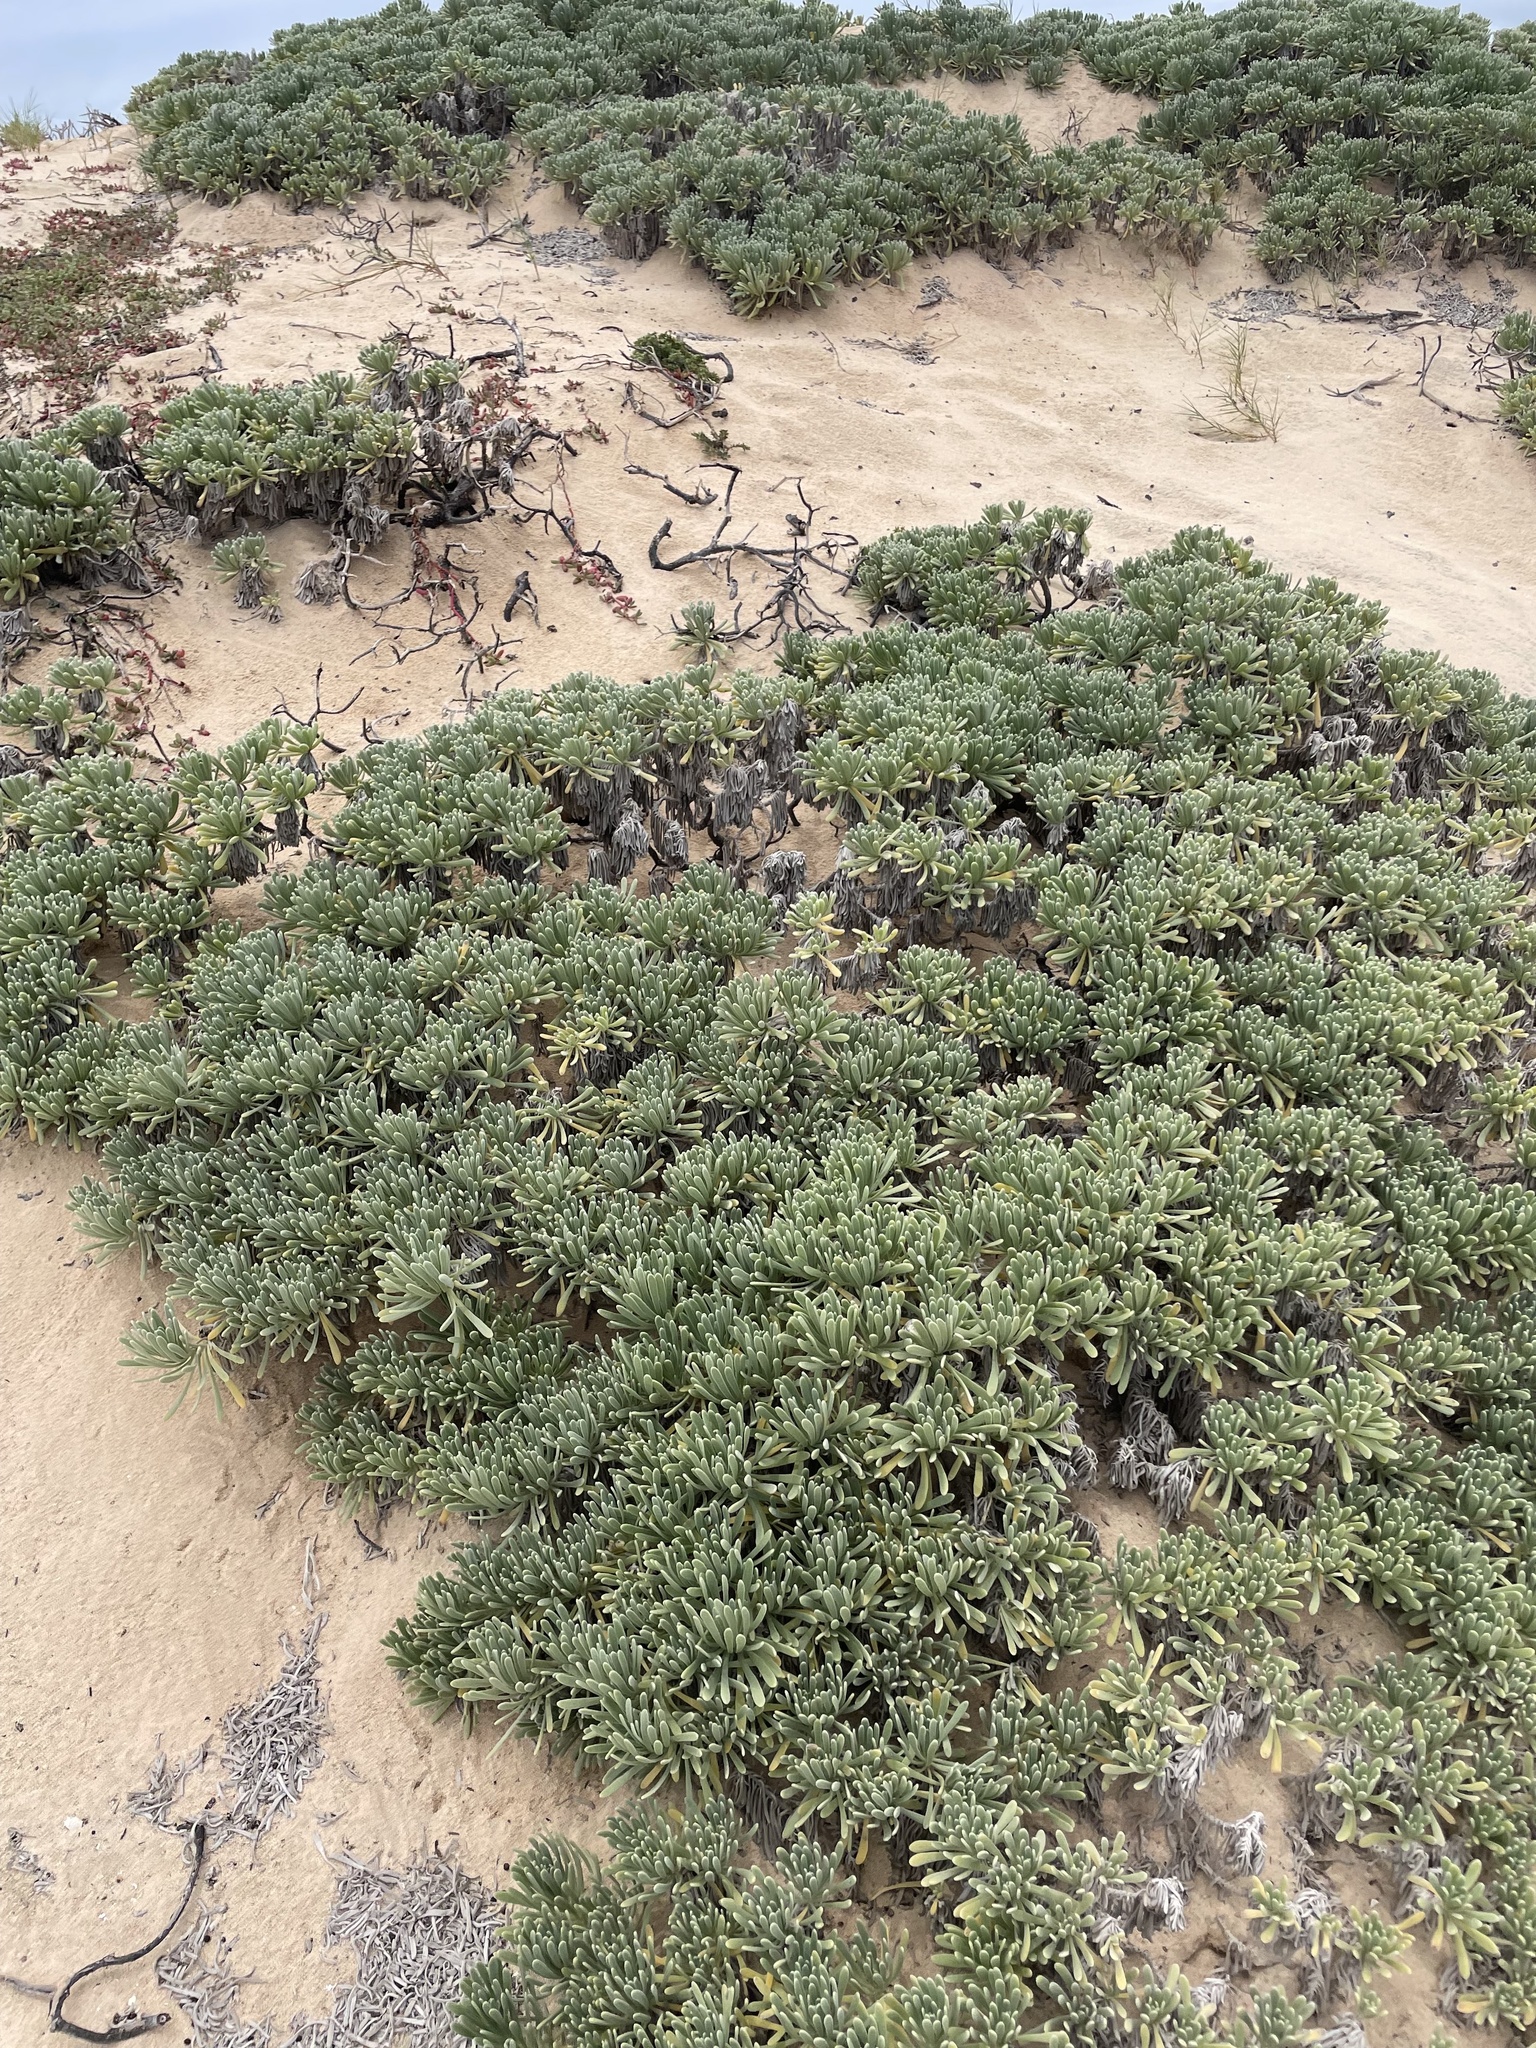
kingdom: Plantae
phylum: Tracheophyta
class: Magnoliopsida
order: Boraginales
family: Heliotropiaceae
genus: Tournefortia
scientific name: Tournefortia gnaphalodes
